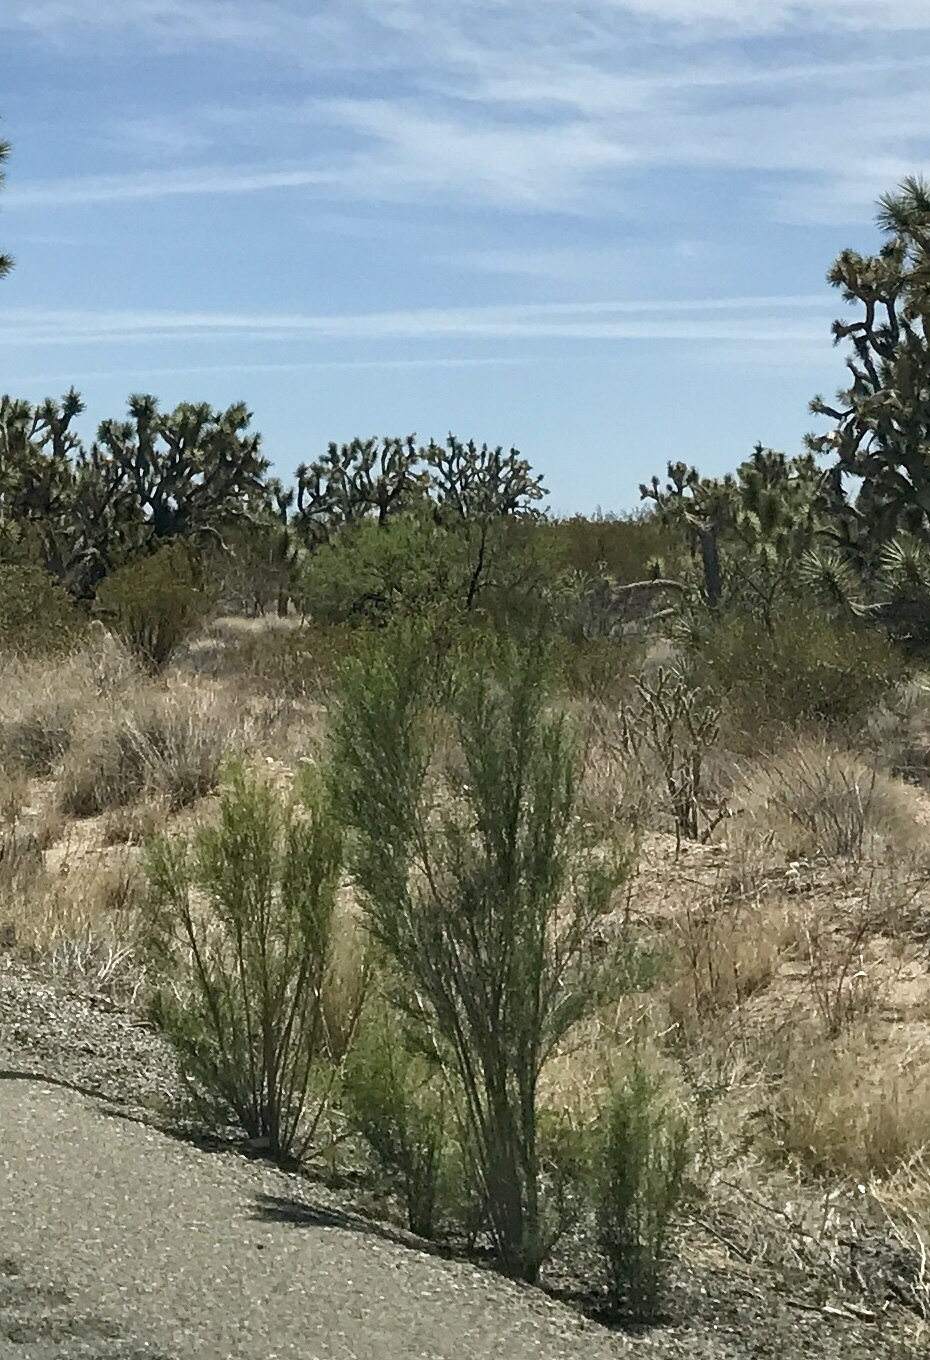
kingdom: Plantae
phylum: Tracheophyta
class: Magnoliopsida
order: Asterales
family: Asteraceae
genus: Baccharis
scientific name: Baccharis sarothroides
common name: Desert-broom
